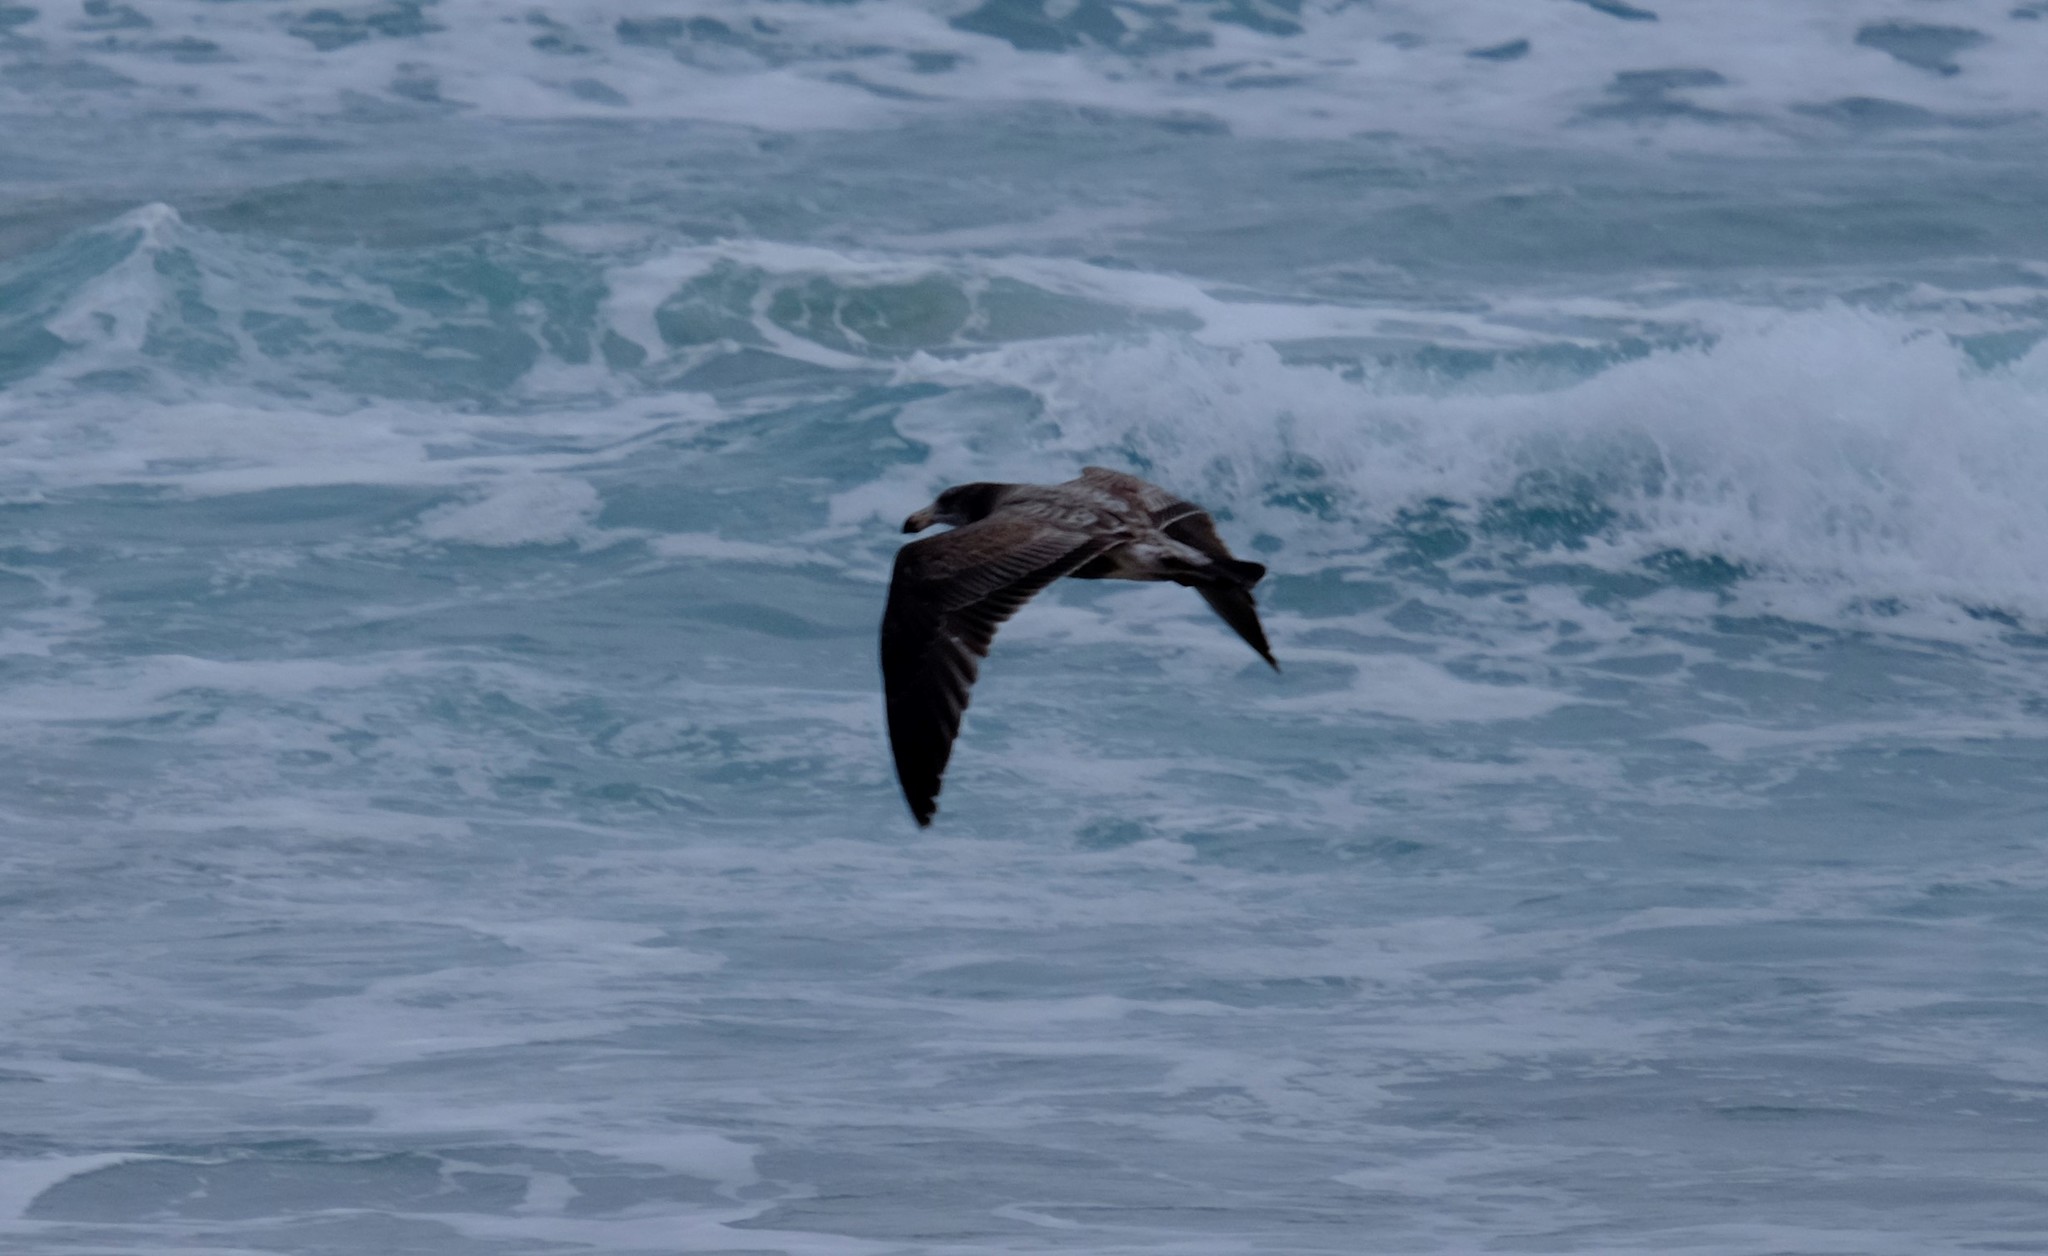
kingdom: Animalia
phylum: Chordata
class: Aves
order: Charadriiformes
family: Laridae
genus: Larus
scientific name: Larus pacificus
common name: Pacific gull
